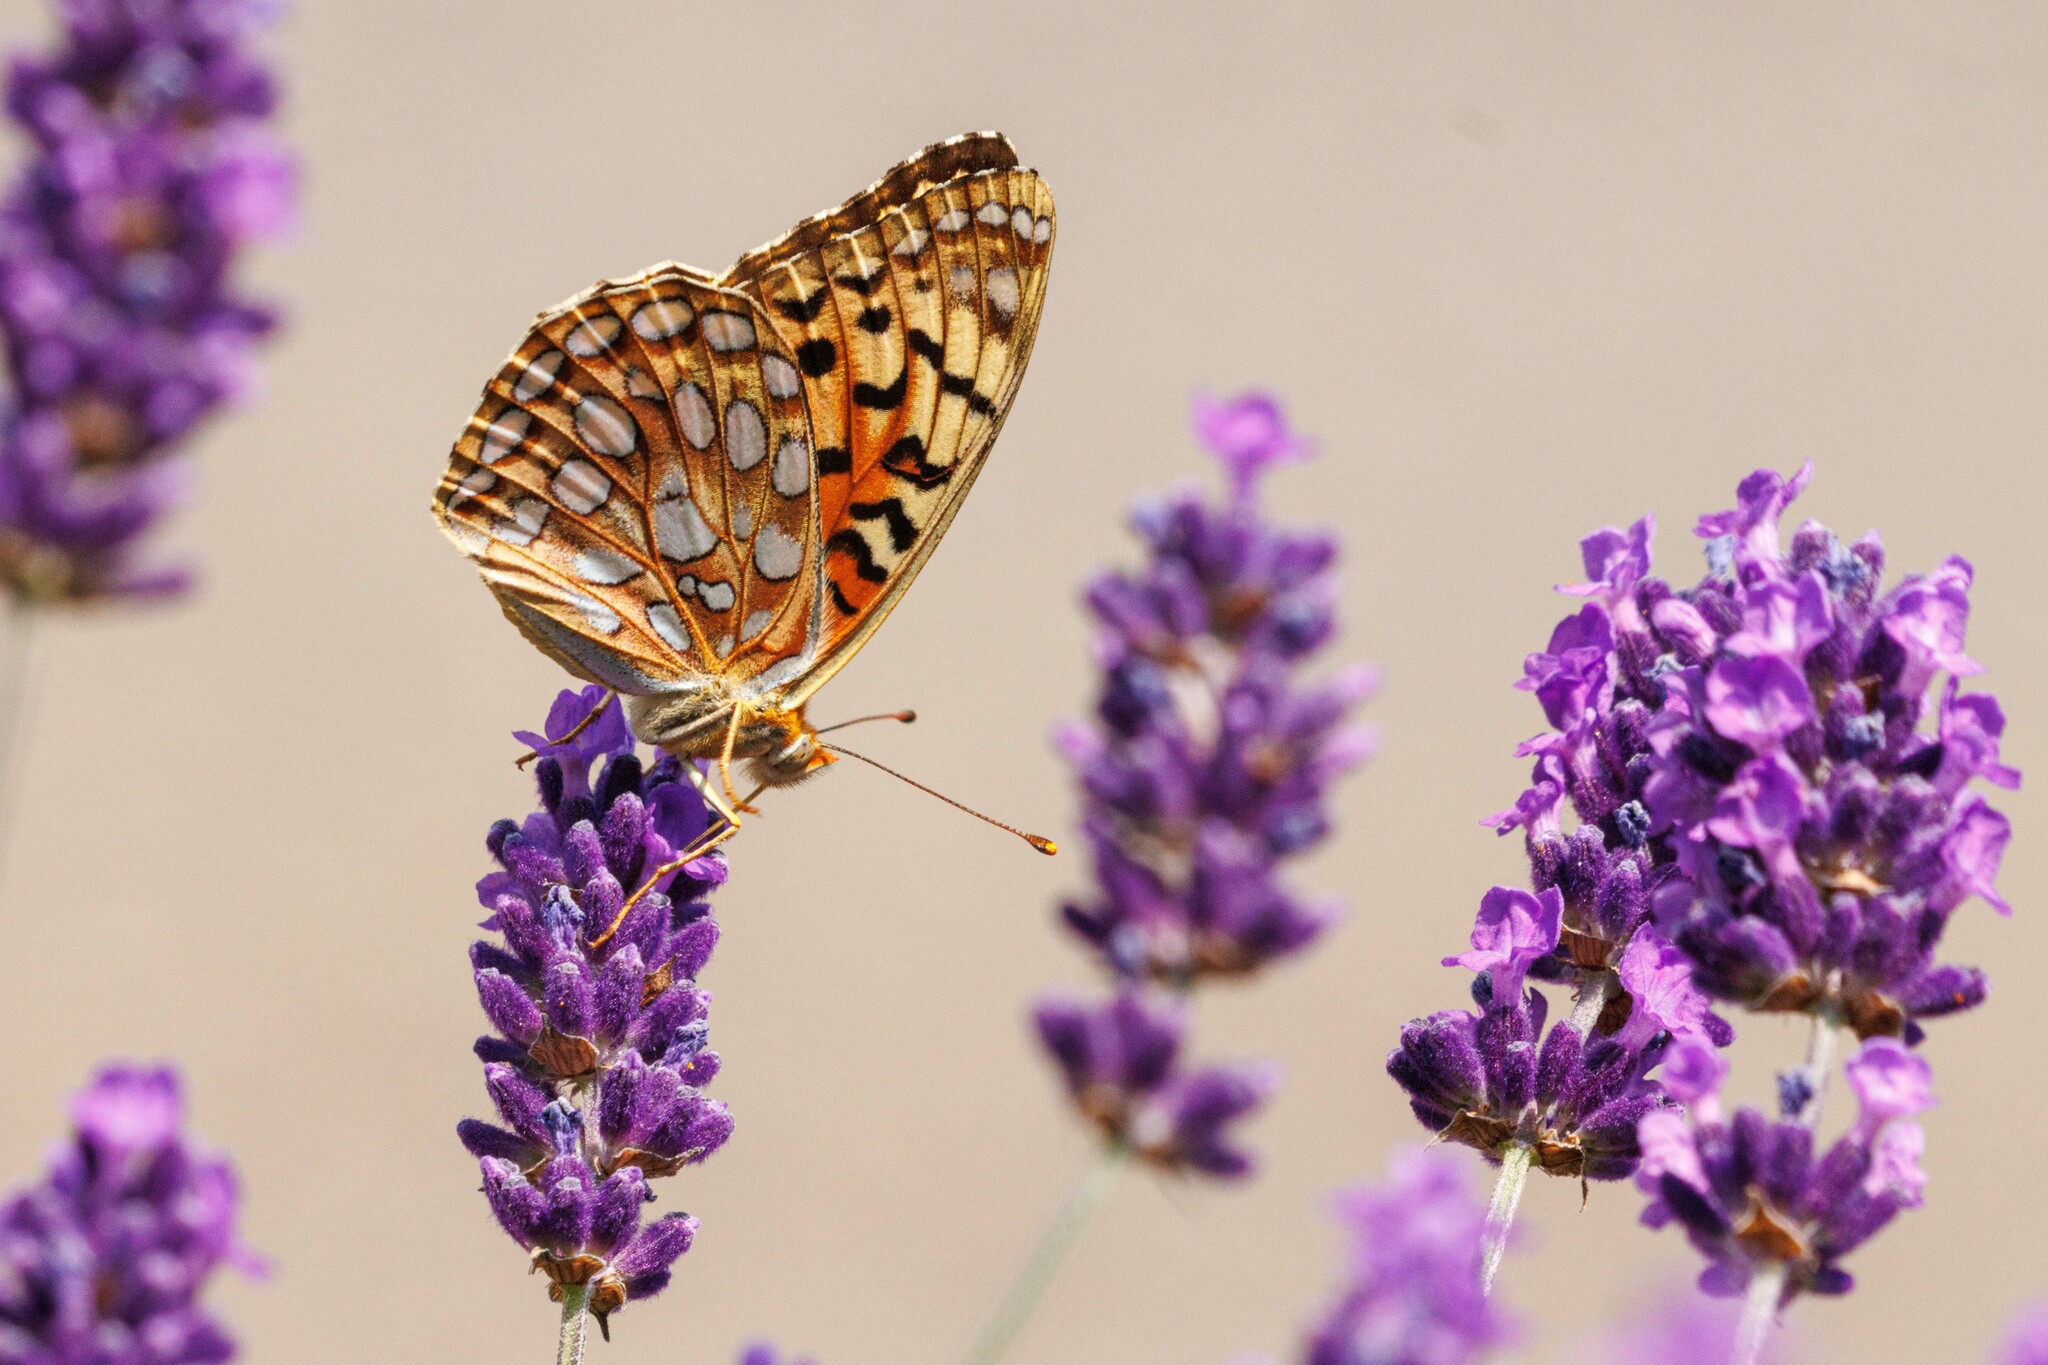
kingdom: Animalia
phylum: Arthropoda
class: Insecta
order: Lepidoptera
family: Nymphalidae
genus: Argynnis
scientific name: Argynnis coronis
